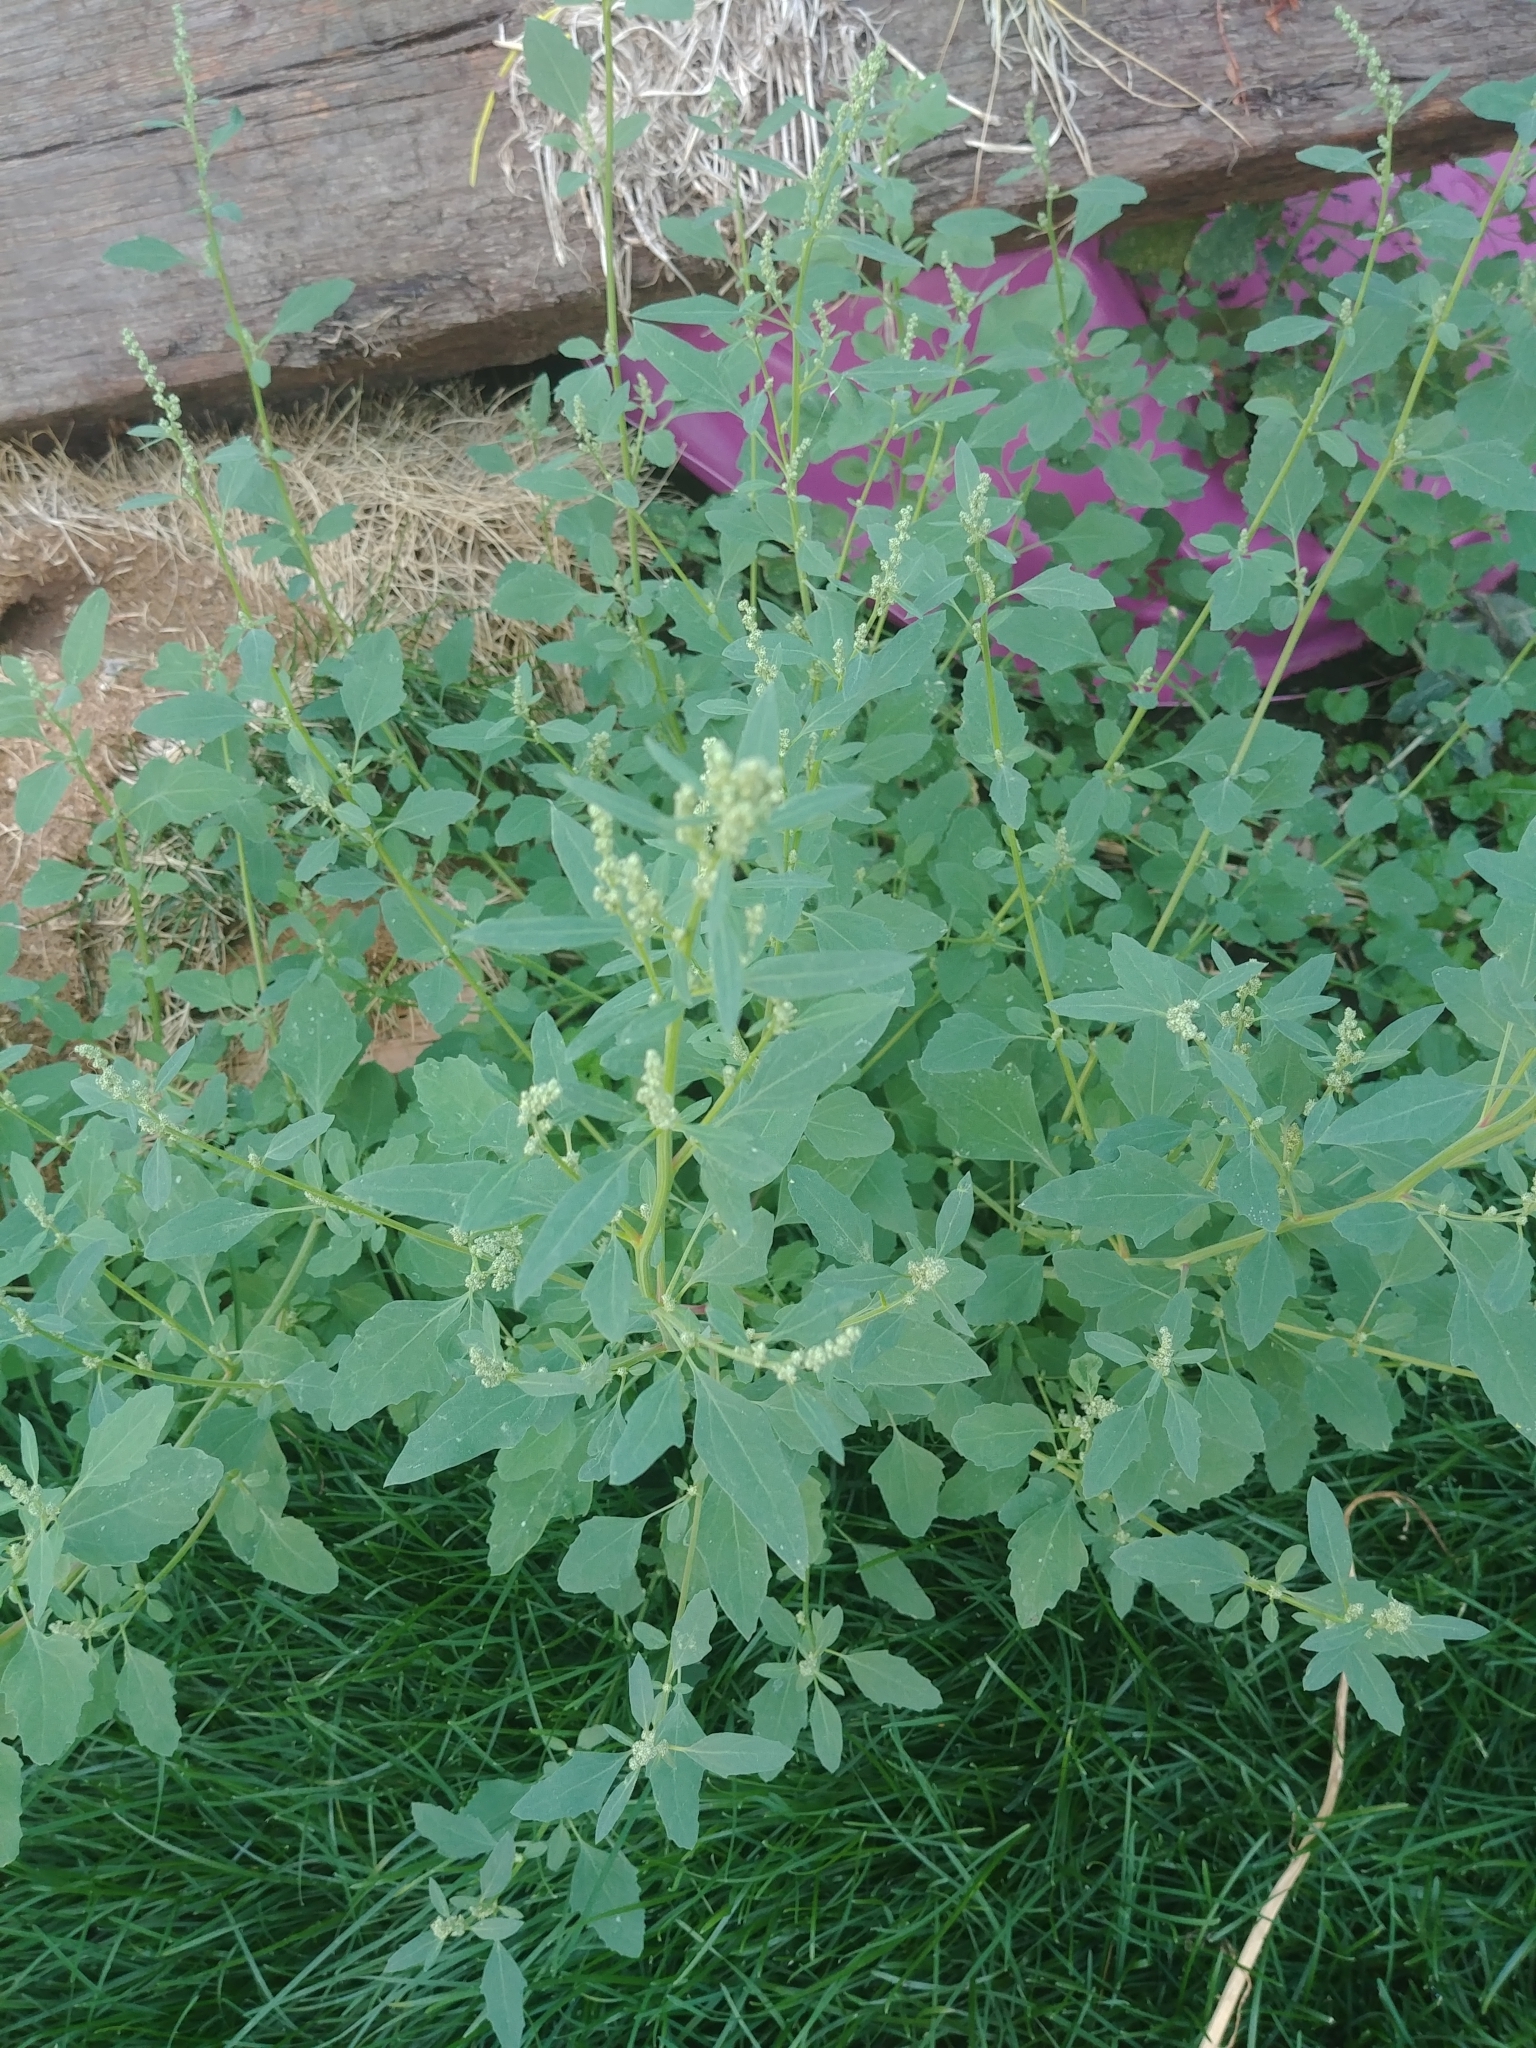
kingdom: Plantae
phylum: Tracheophyta
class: Magnoliopsida
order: Caryophyllales
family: Amaranthaceae
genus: Chenopodium
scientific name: Chenopodium album
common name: Fat-hen
